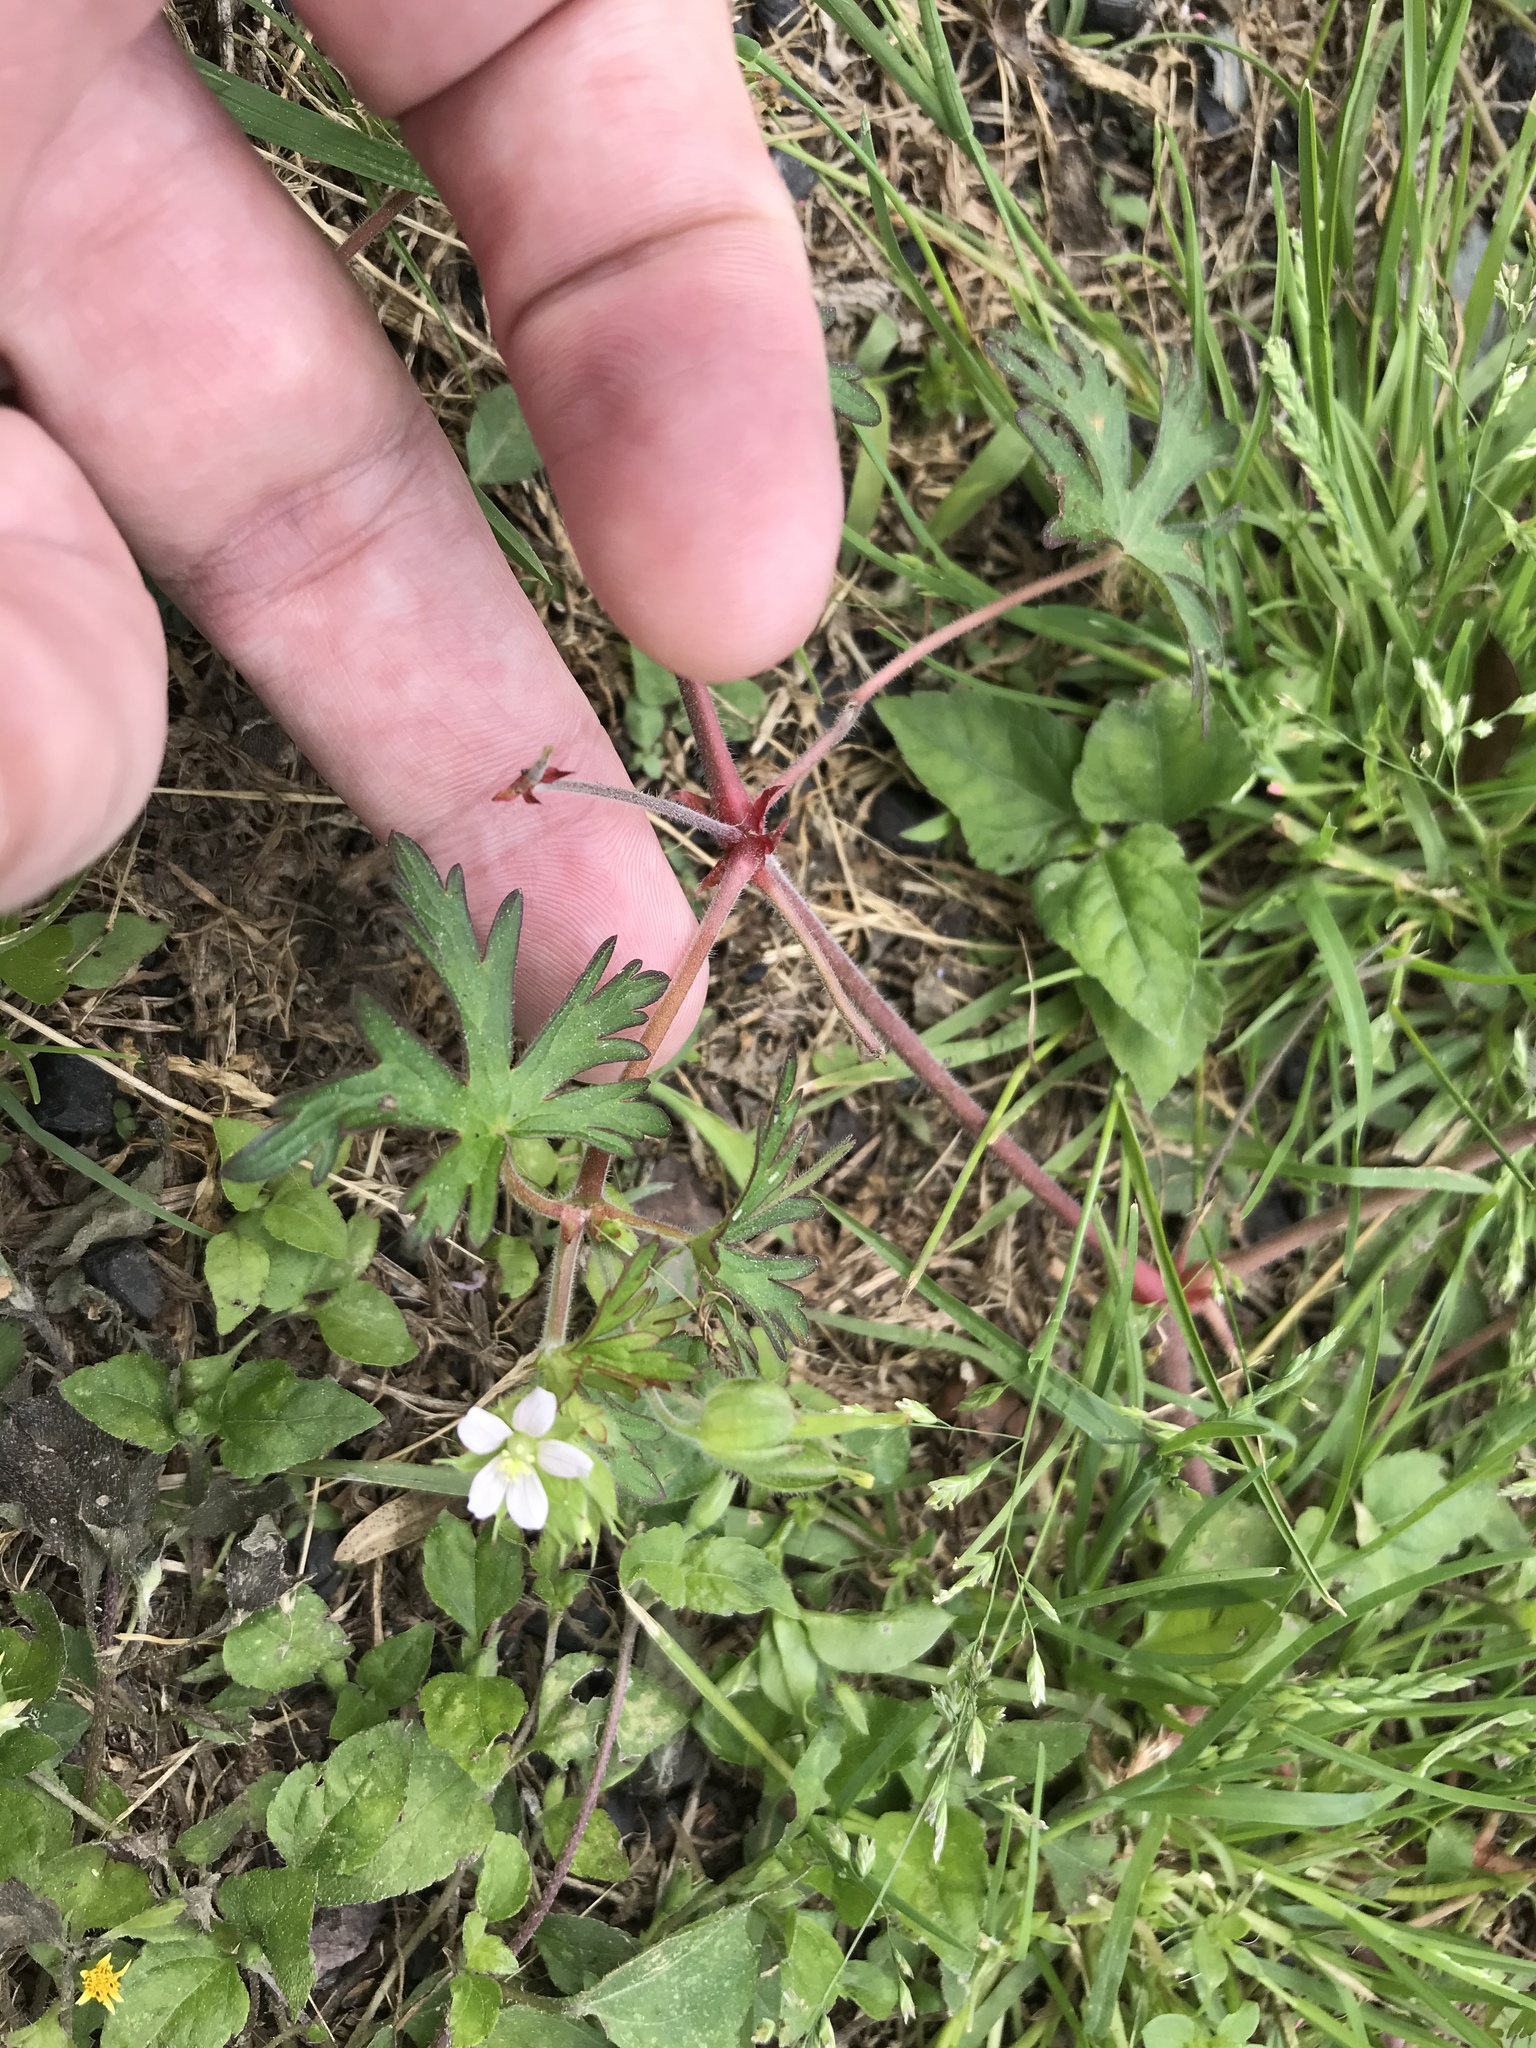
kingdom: Plantae
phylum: Tracheophyta
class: Magnoliopsida
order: Geraniales
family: Geraniaceae
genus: Geranium
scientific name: Geranium carolinianum
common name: Carolina crane's-bill
